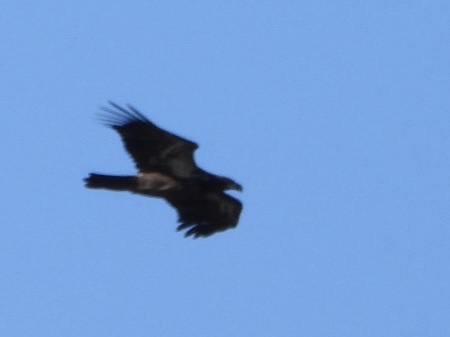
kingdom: Animalia
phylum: Chordata
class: Aves
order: Accipitriformes
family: Accipitridae
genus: Haliaeetus
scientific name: Haliaeetus leucocephalus
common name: Bald eagle
